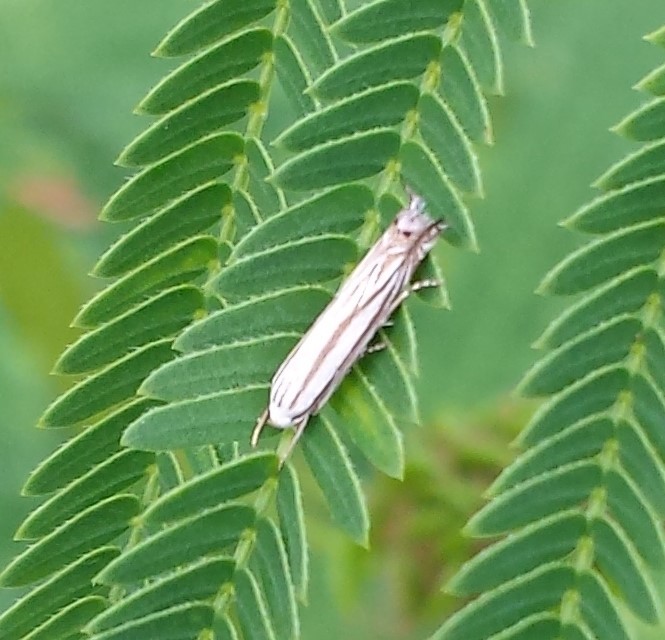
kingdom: Animalia
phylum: Arthropoda
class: Insecta
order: Lepidoptera
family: Gelechiidae
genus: Polyhymno
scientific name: Polyhymno luteostrigella
